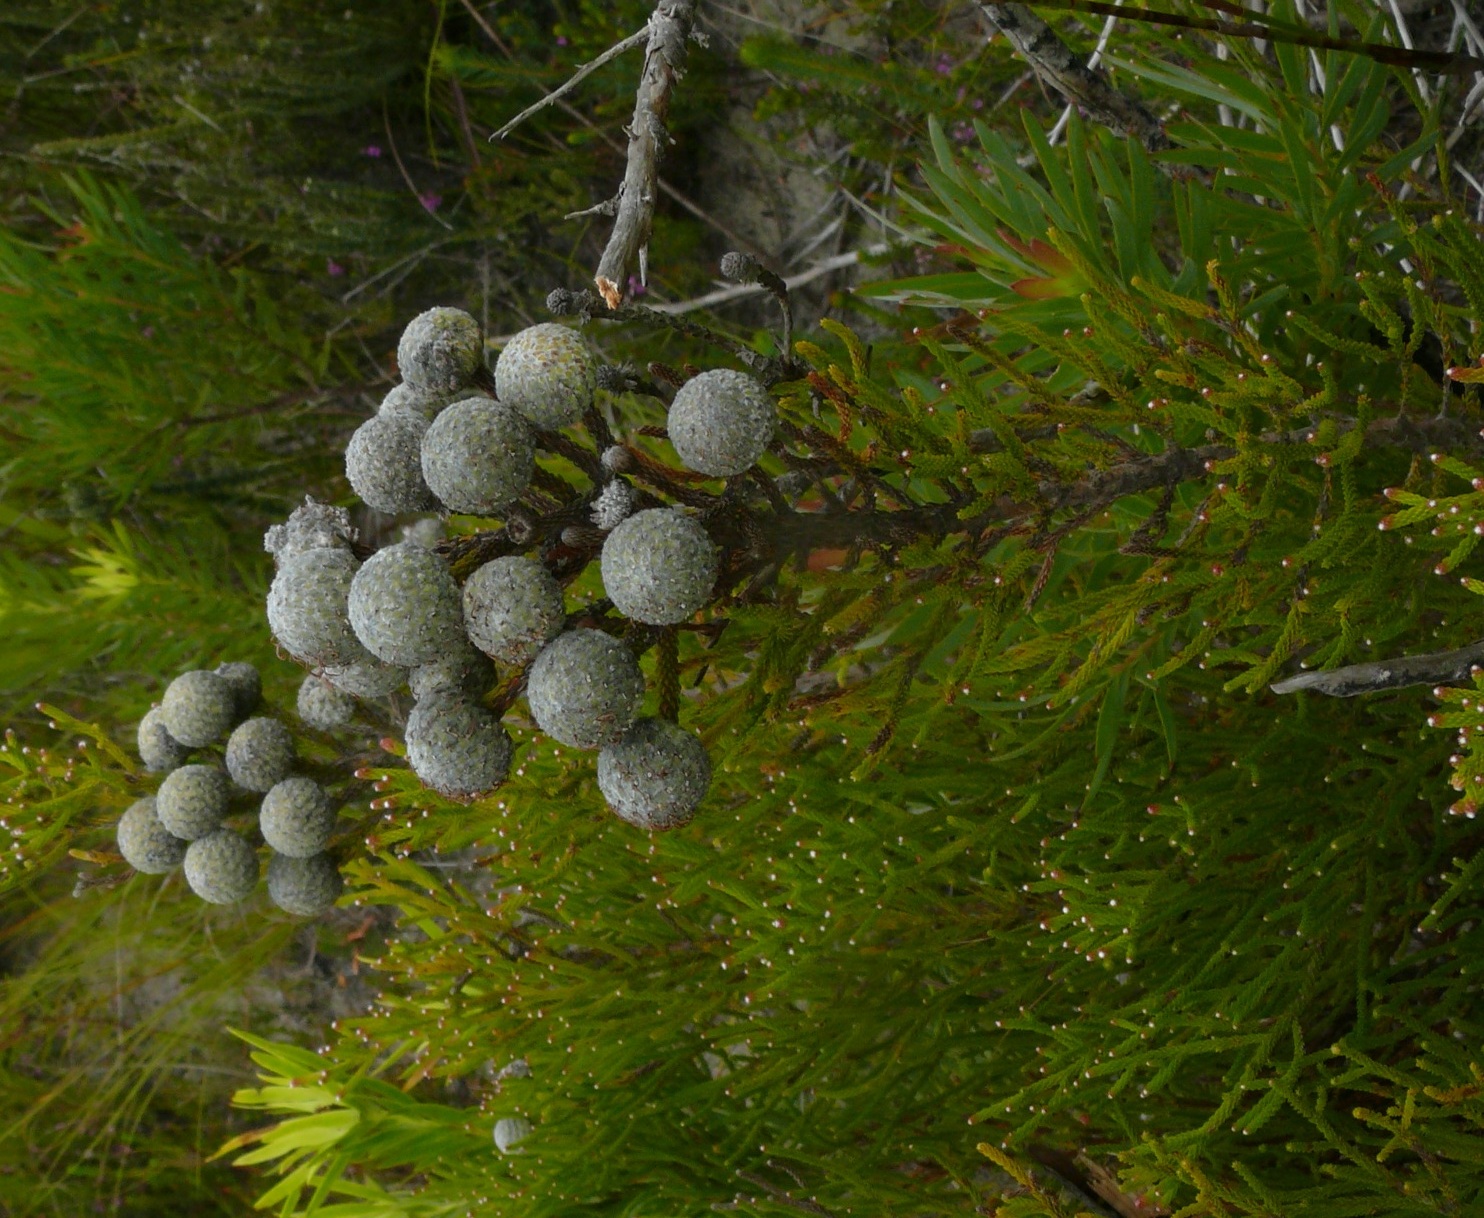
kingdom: Plantae
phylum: Tracheophyta
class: Magnoliopsida
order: Bruniales
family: Bruniaceae
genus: Brunia
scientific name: Brunia noduliflora
